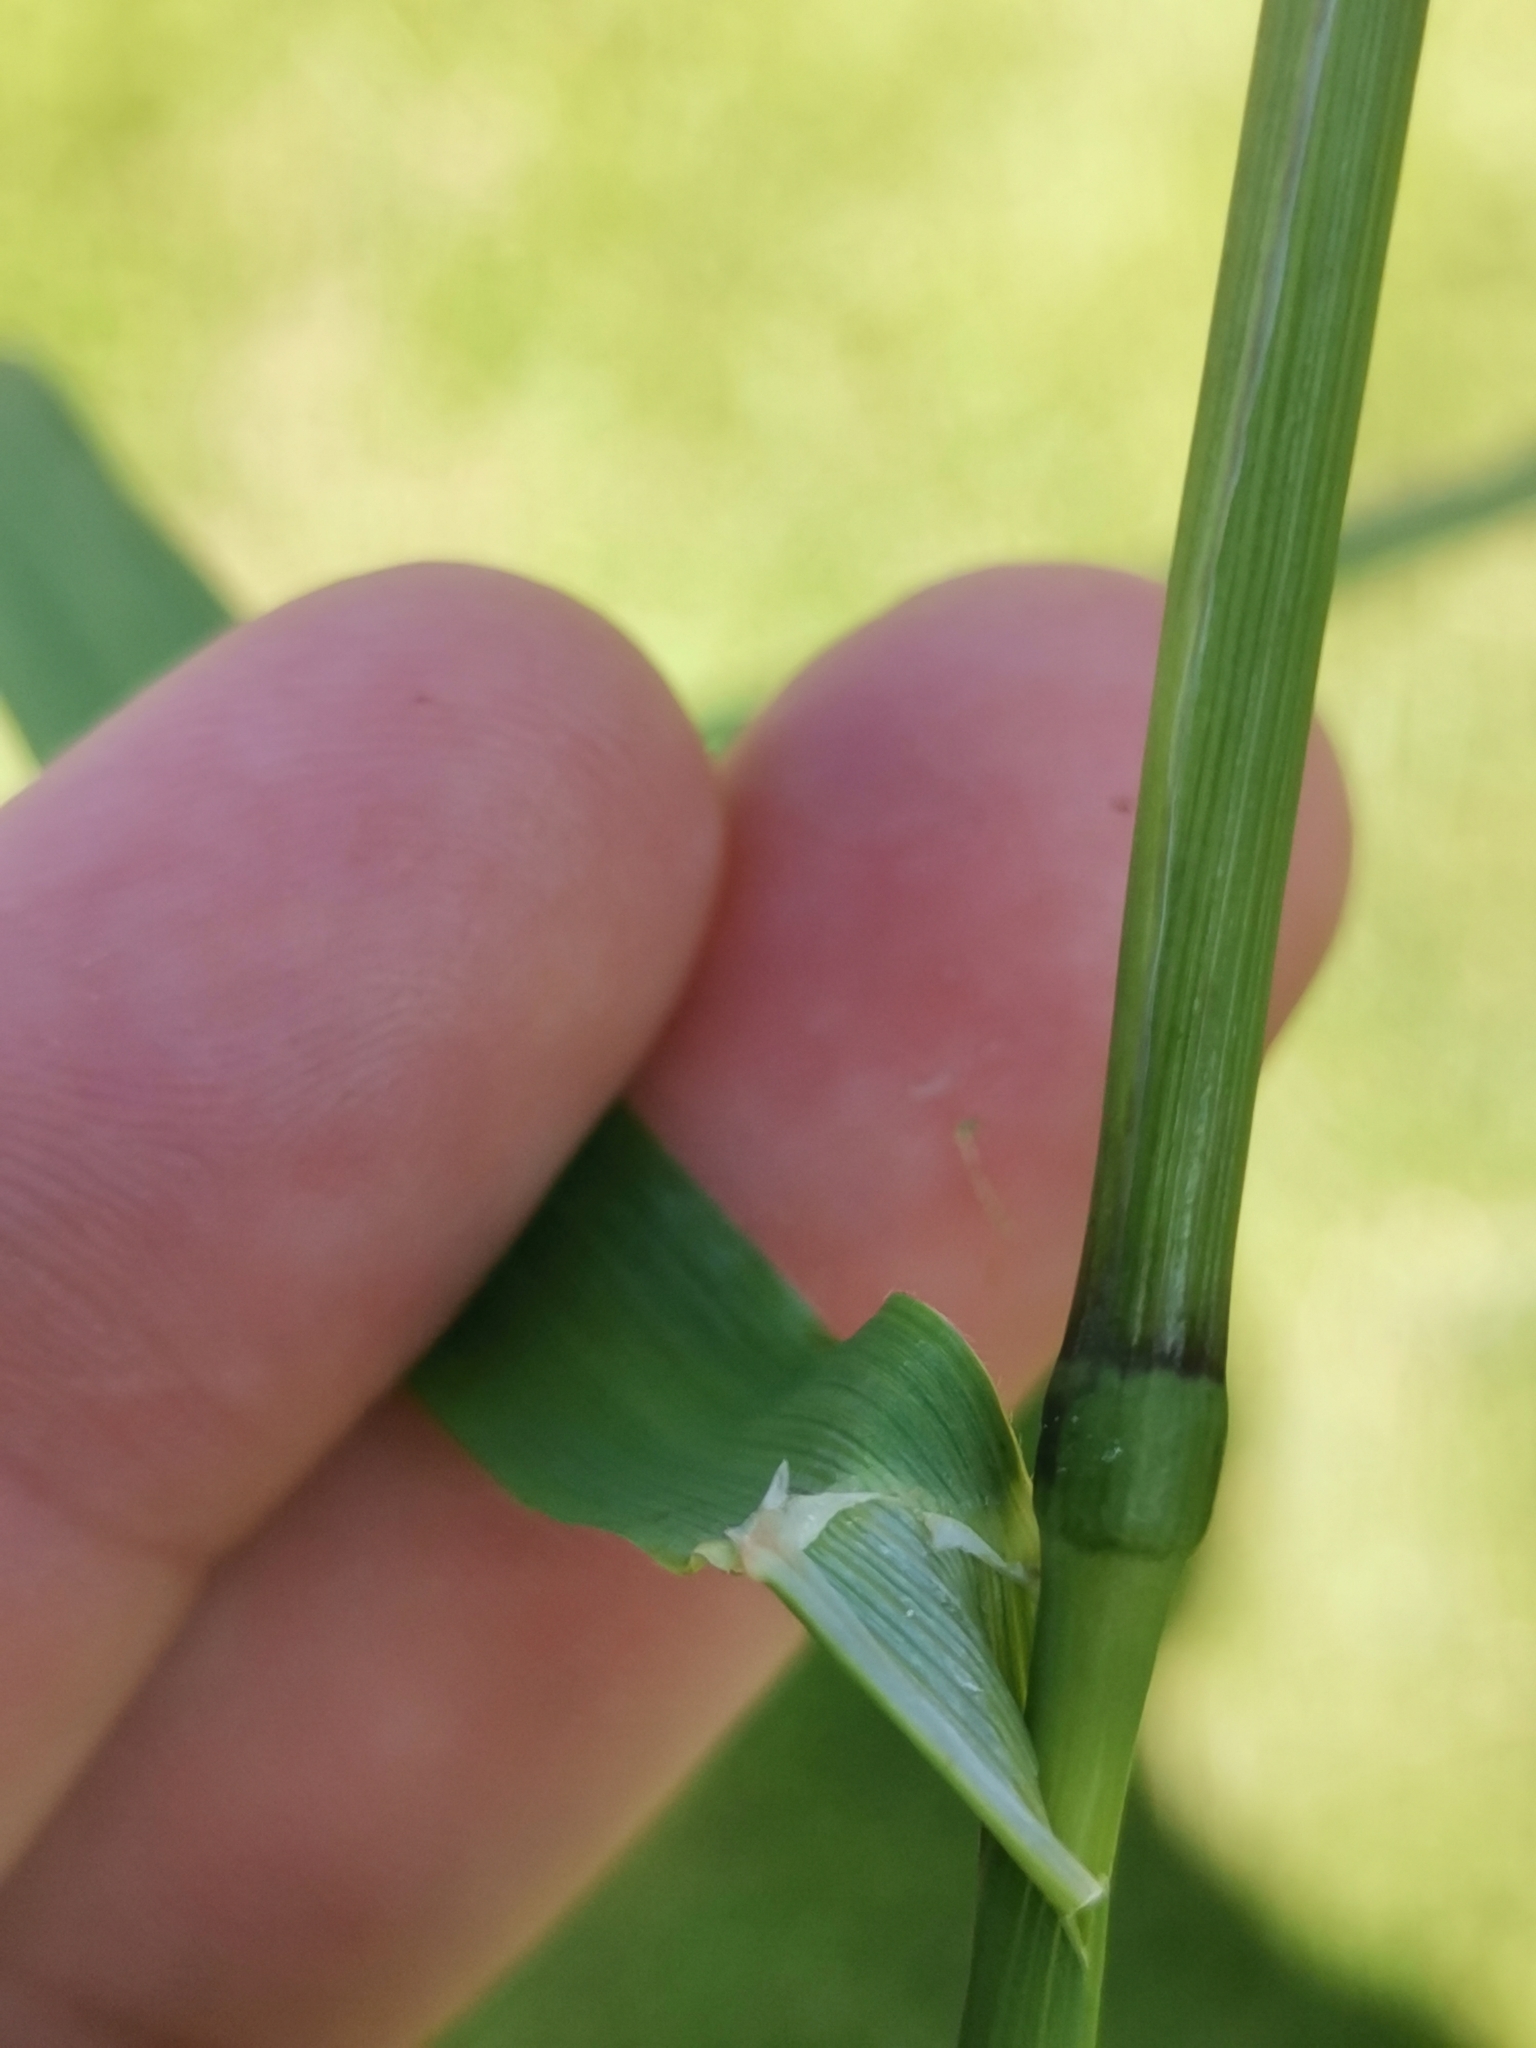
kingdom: Plantae
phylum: Tracheophyta
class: Liliopsida
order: Poales
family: Poaceae
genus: Phleum
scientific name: Phleum alpinum
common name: Alpine cat's-tail
